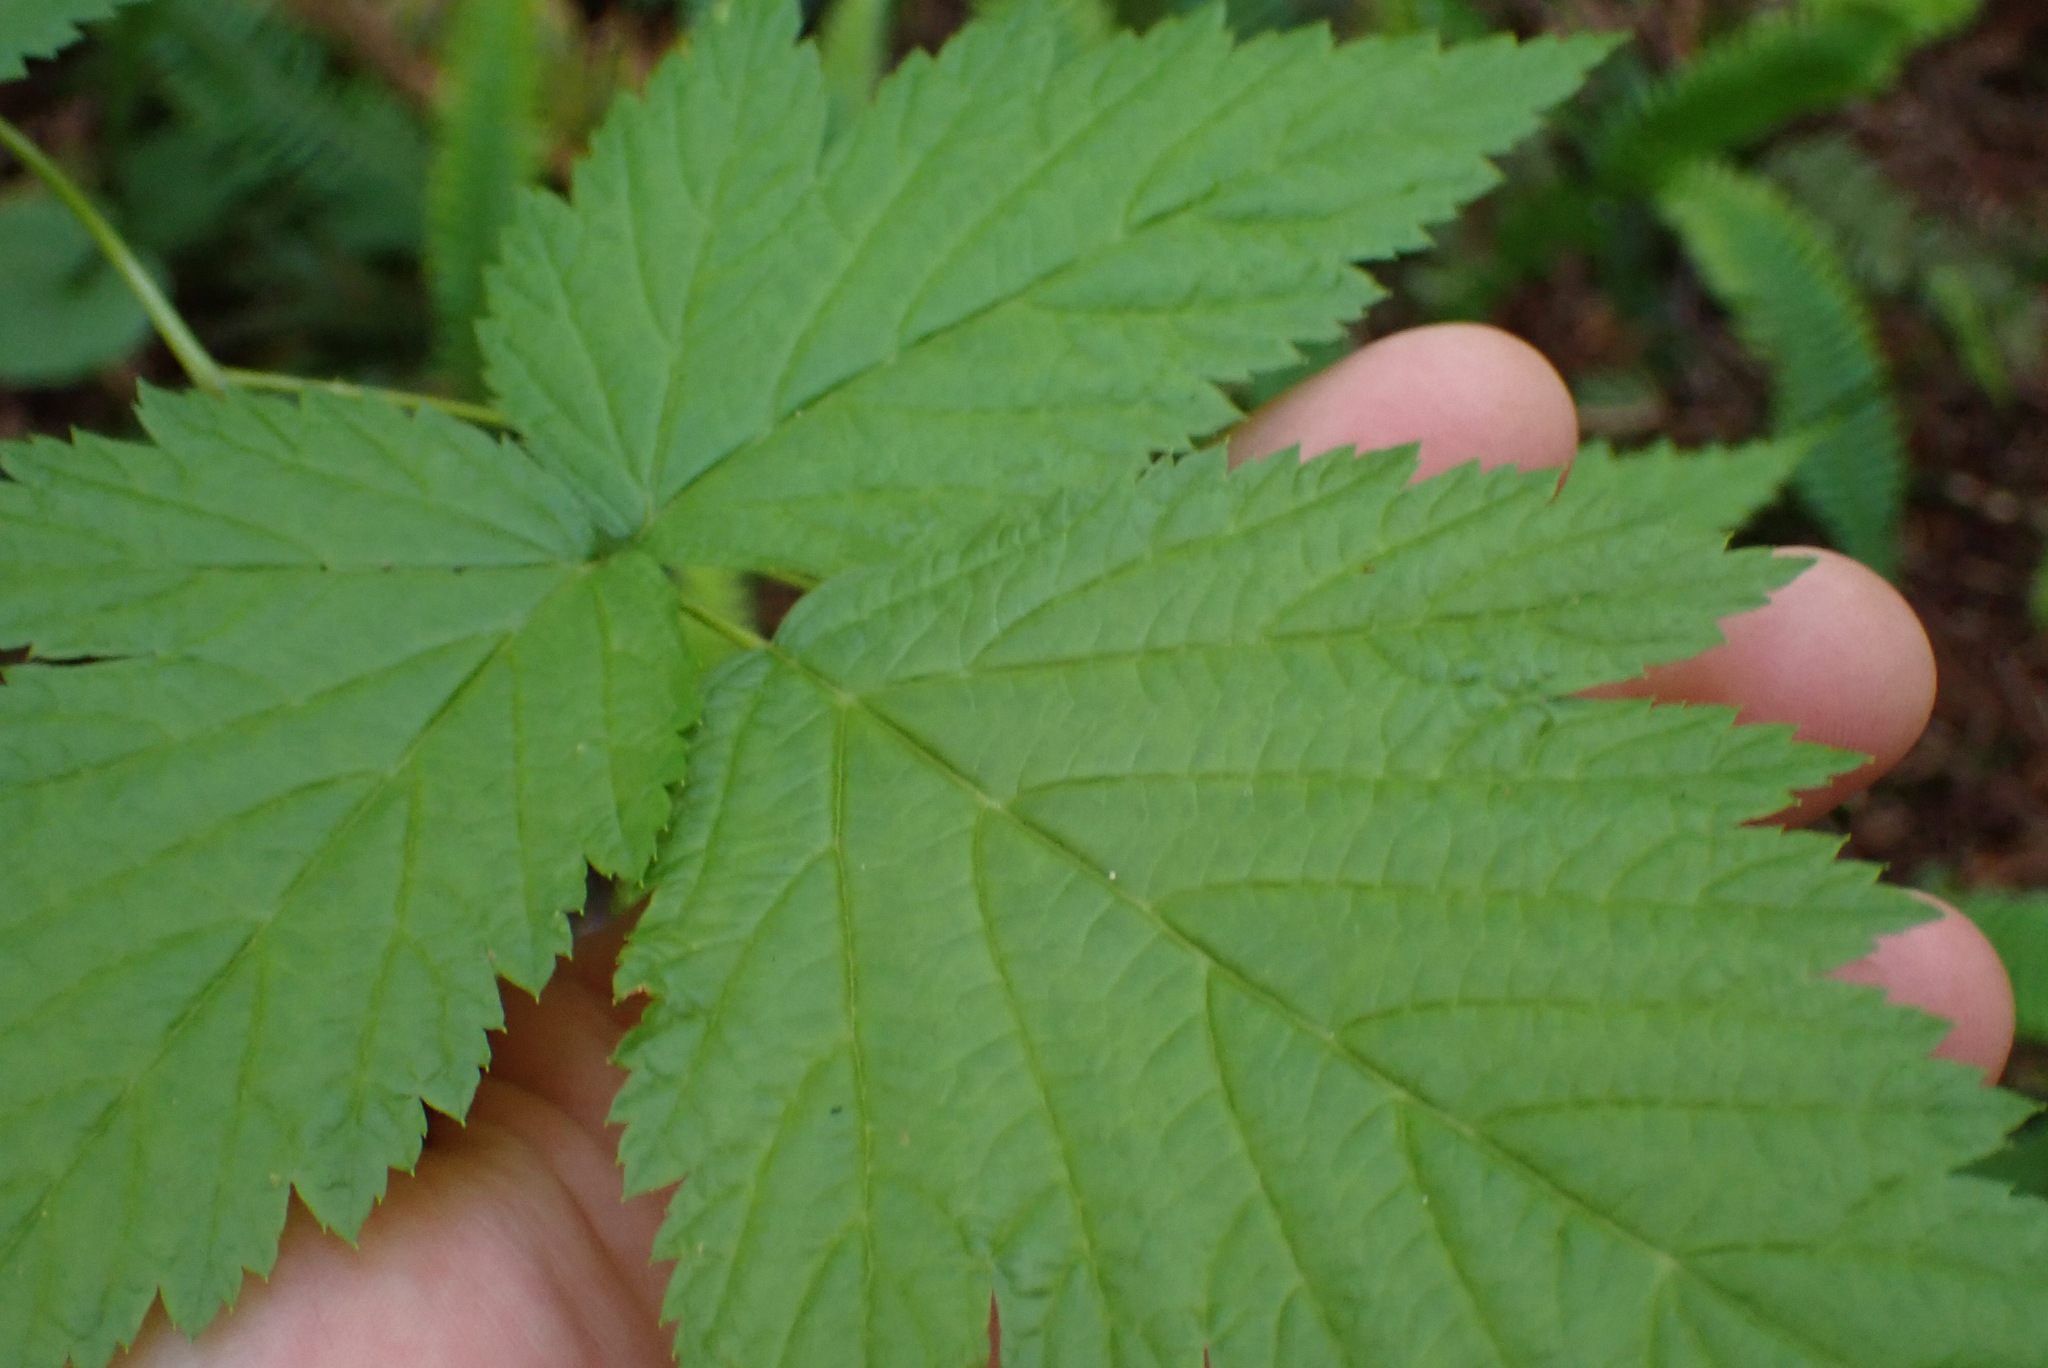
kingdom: Plantae
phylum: Tracheophyta
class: Magnoliopsida
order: Rosales
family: Rosaceae
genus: Rubus
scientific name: Rubus spectabilis
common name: Salmonberry
